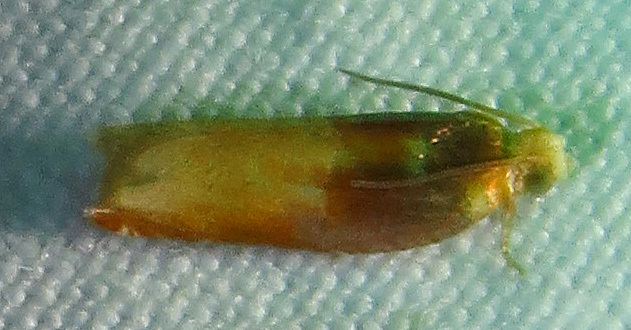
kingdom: Animalia
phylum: Arthropoda
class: Insecta
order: Lepidoptera
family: Tortricidae
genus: Ancylis
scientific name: Ancylis divisana
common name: Two-toned ancylis moth
